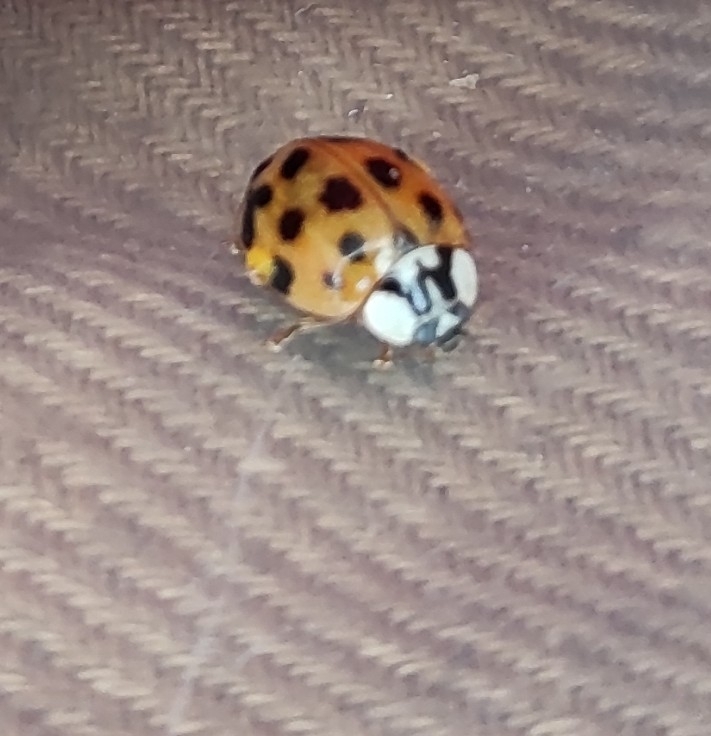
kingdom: Animalia
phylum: Arthropoda
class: Insecta
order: Coleoptera
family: Coccinellidae
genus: Harmonia
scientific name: Harmonia axyridis
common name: Harlequin ladybird
